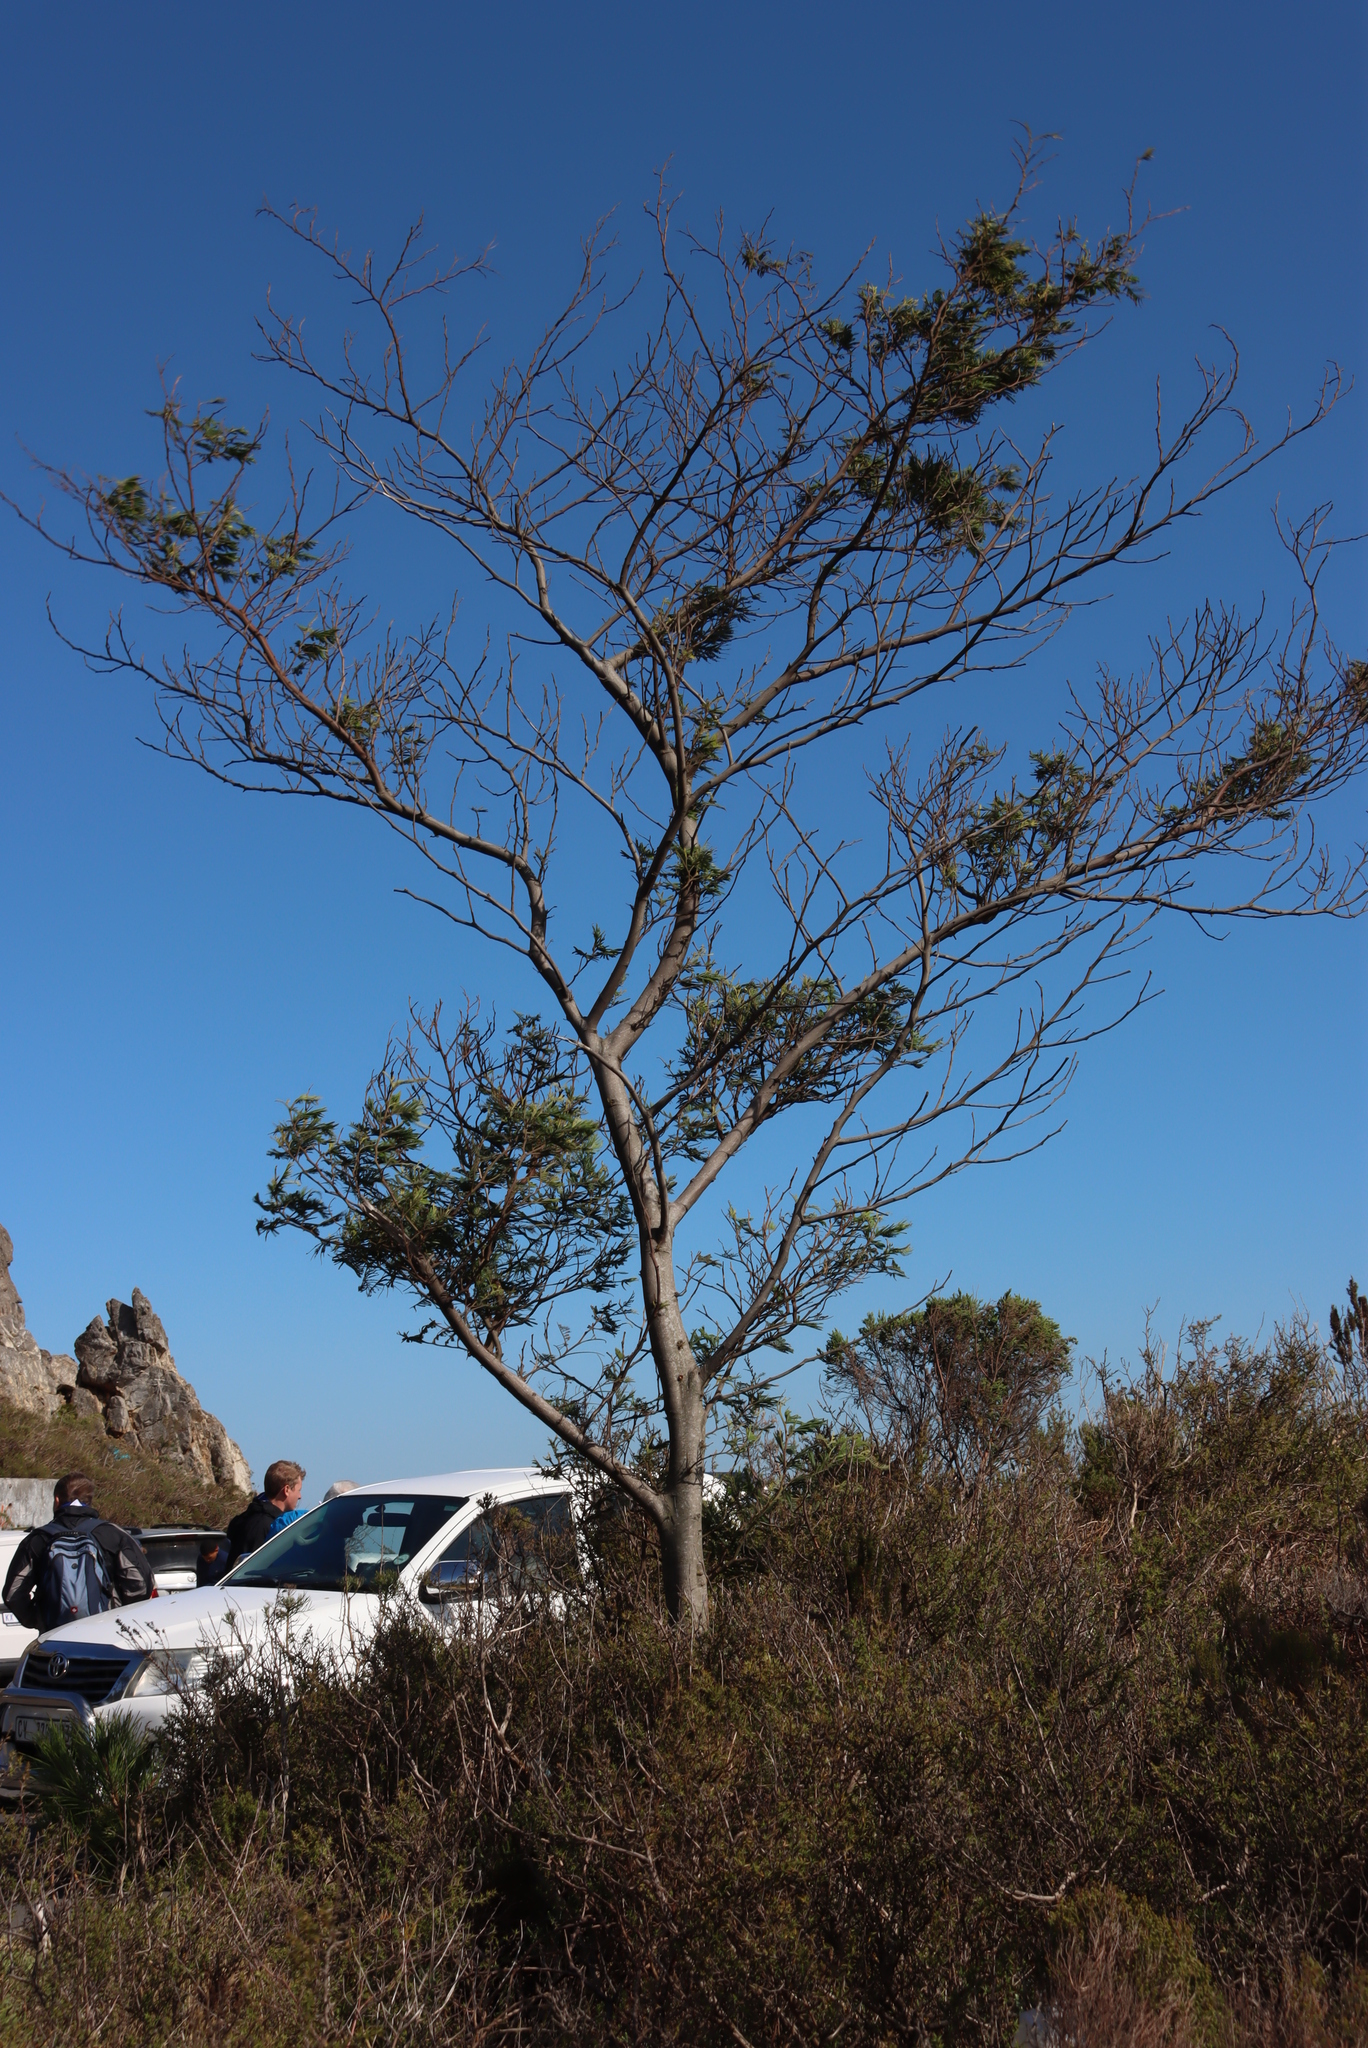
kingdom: Plantae
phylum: Tracheophyta
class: Magnoliopsida
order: Fabales
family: Fabaceae
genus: Acacia
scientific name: Acacia mearnsii
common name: Black wattle
